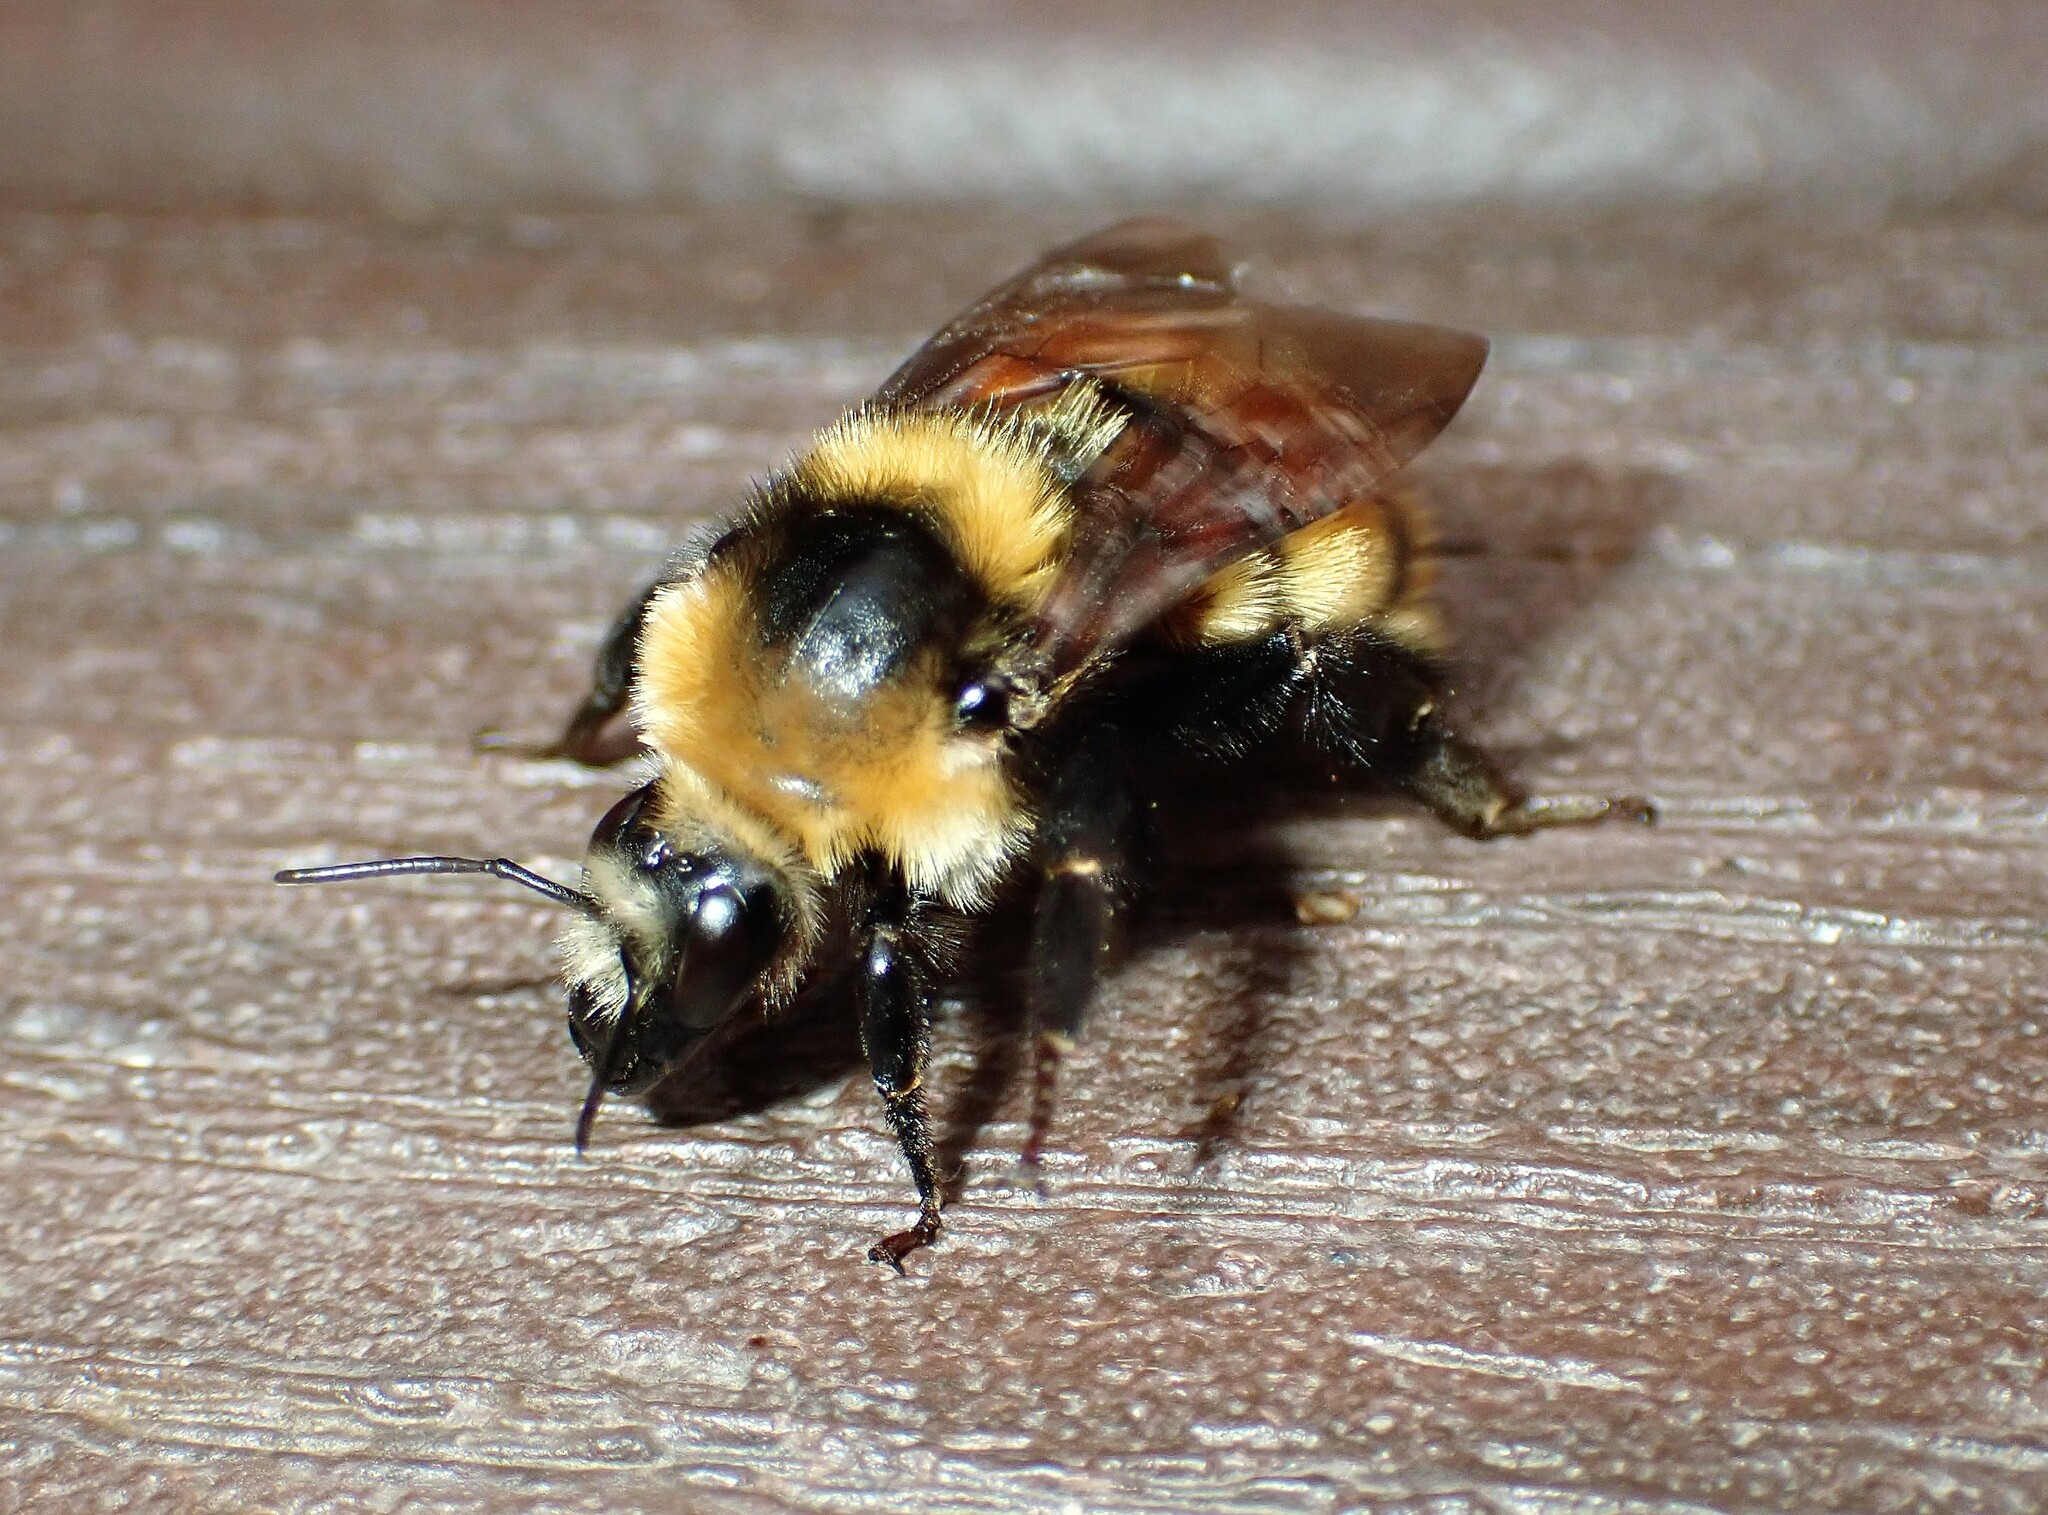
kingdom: Animalia
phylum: Arthropoda
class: Insecta
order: Hymenoptera
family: Apidae
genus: Bombus
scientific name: Bombus borealis
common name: Northern amber bumble bee
